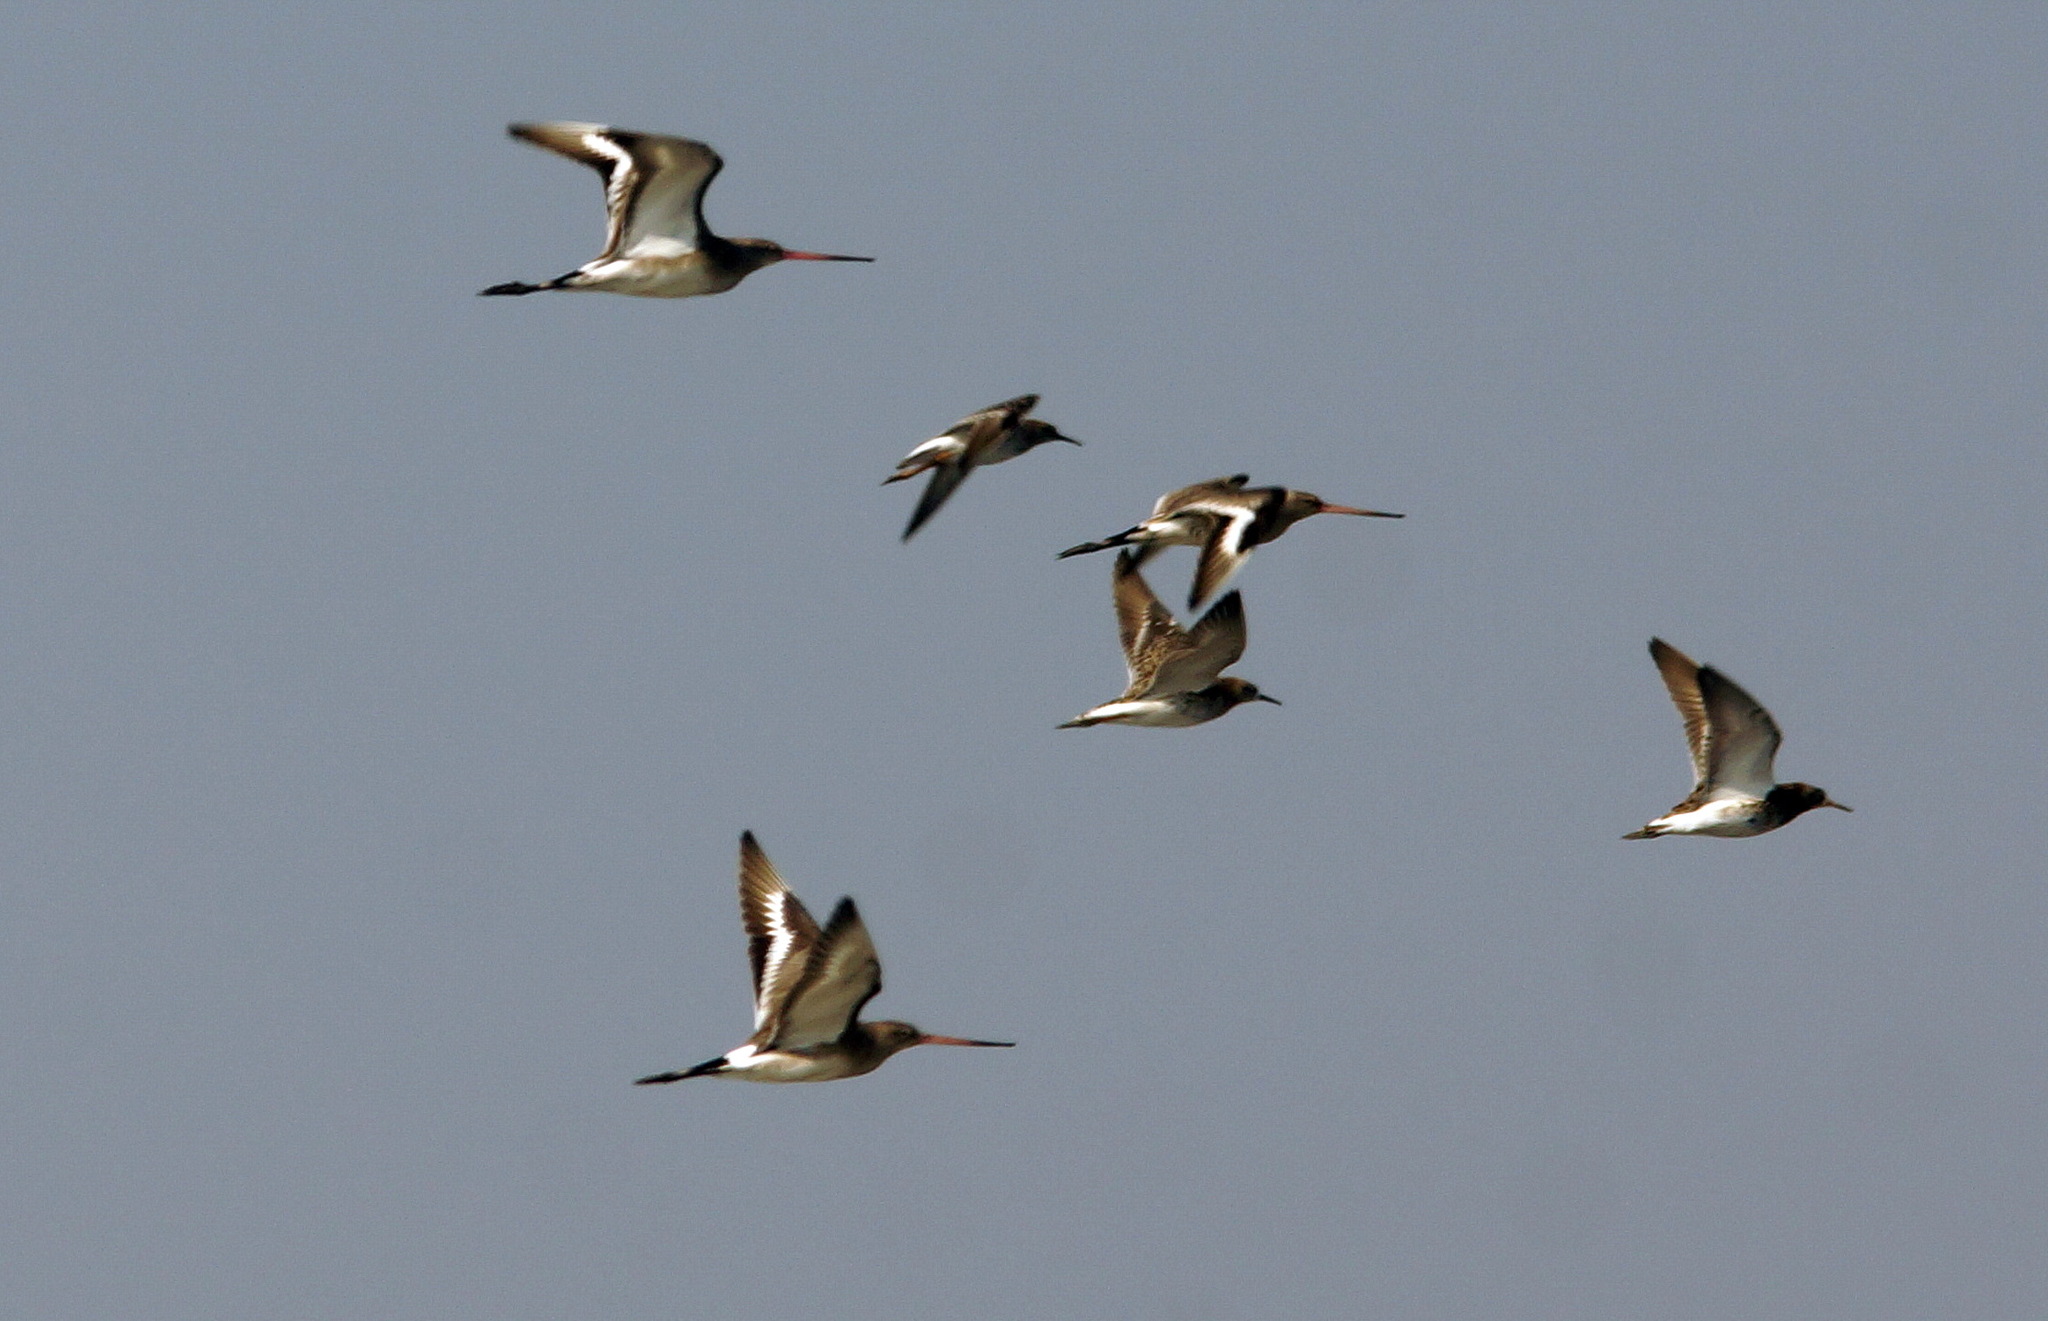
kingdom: Animalia
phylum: Chordata
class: Aves
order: Charadriiformes
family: Scolopacidae
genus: Limosa
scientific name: Limosa limosa
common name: Black-tailed godwit
